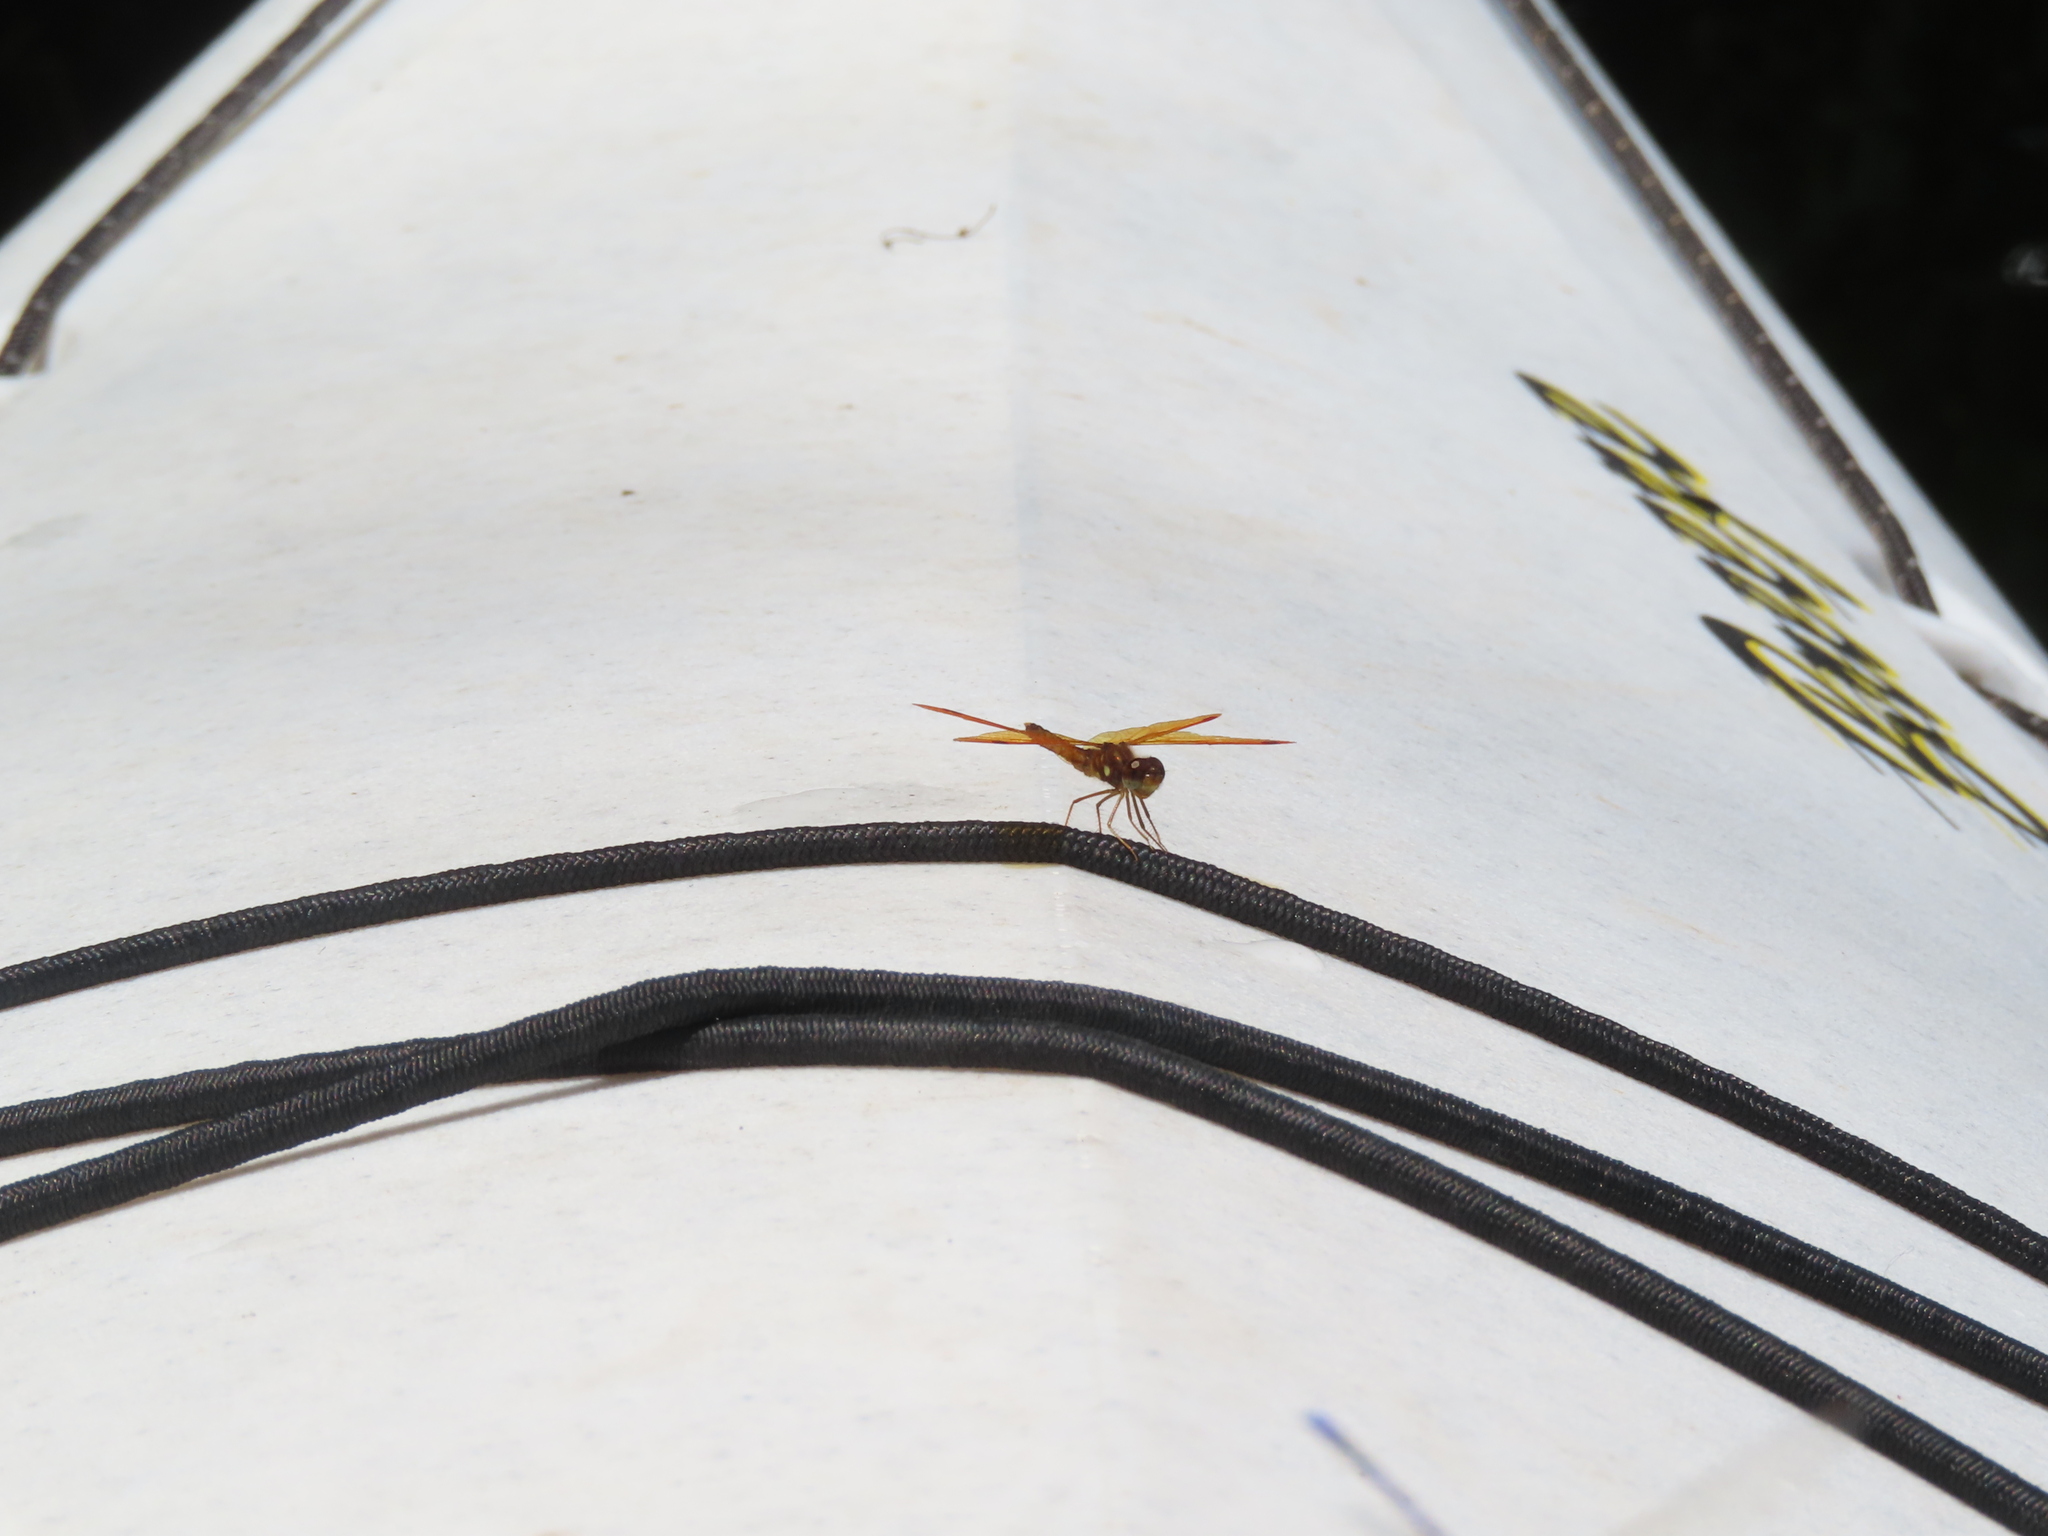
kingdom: Animalia
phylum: Arthropoda
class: Insecta
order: Odonata
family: Libellulidae
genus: Perithemis
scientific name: Perithemis tenera
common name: Eastern amberwing
